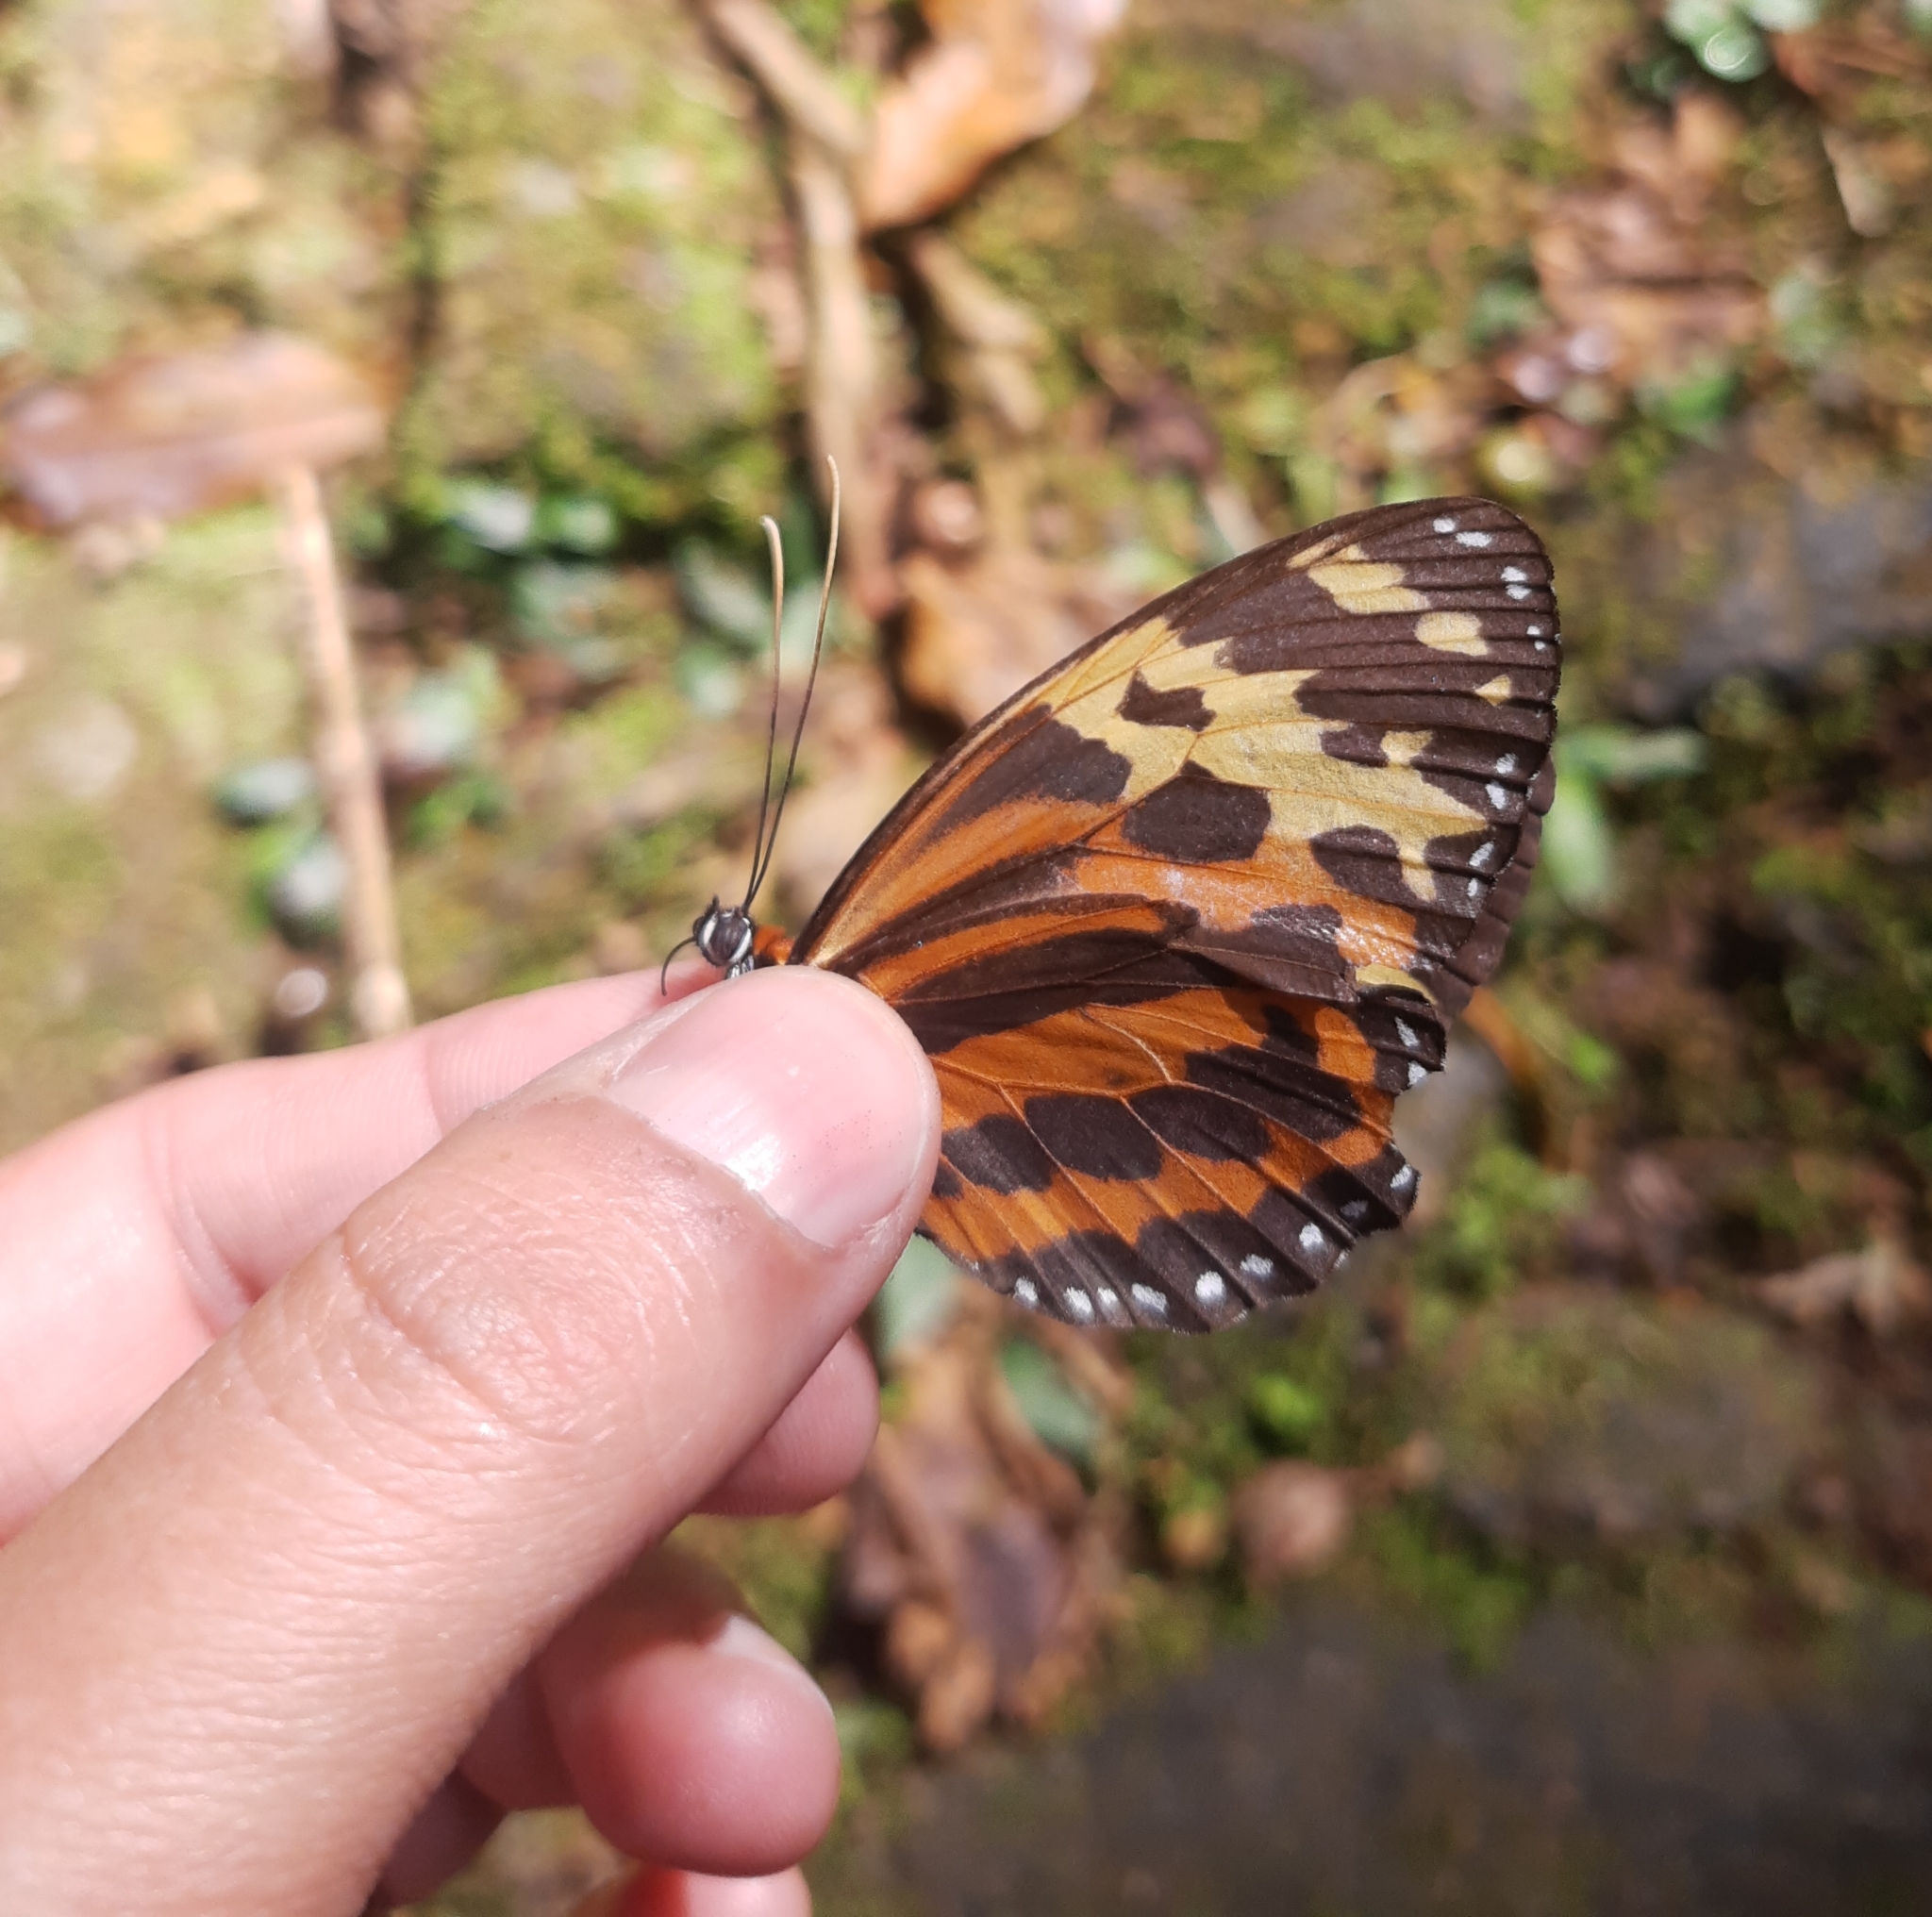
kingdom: Animalia
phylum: Arthropoda
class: Insecta
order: Lepidoptera
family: Nymphalidae
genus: Tithorea
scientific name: Tithorea harmonia
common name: Harmonia tigerwing
